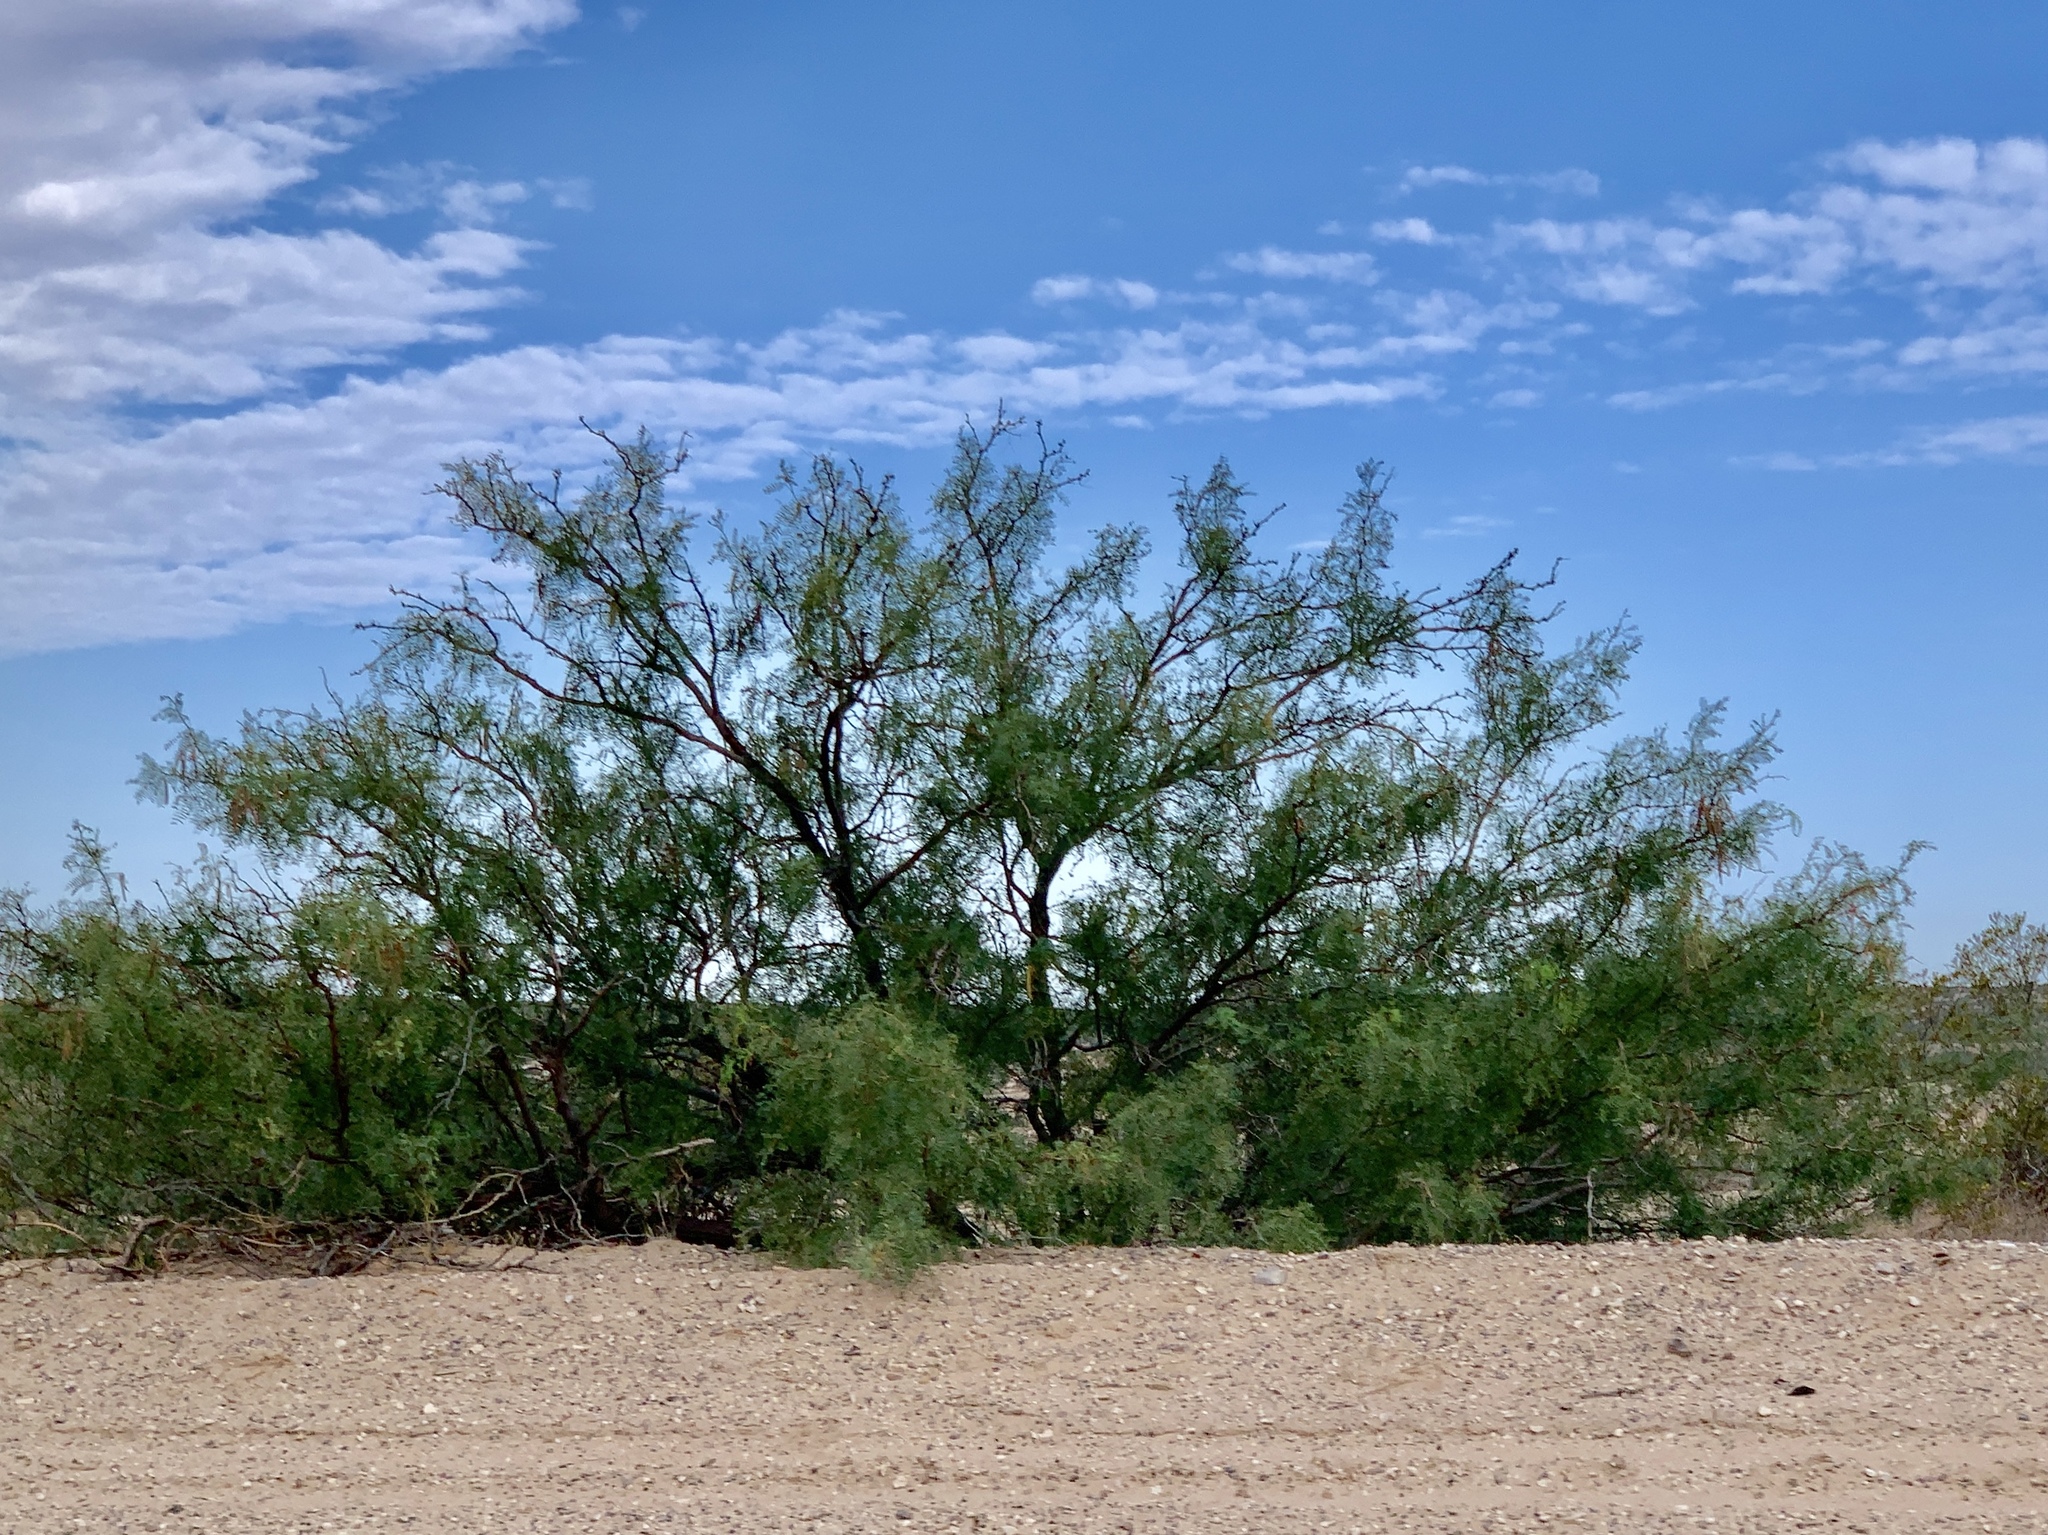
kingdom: Plantae
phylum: Tracheophyta
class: Magnoliopsida
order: Fabales
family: Fabaceae
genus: Prosopis
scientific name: Prosopis glandulosa
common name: Honey mesquite
